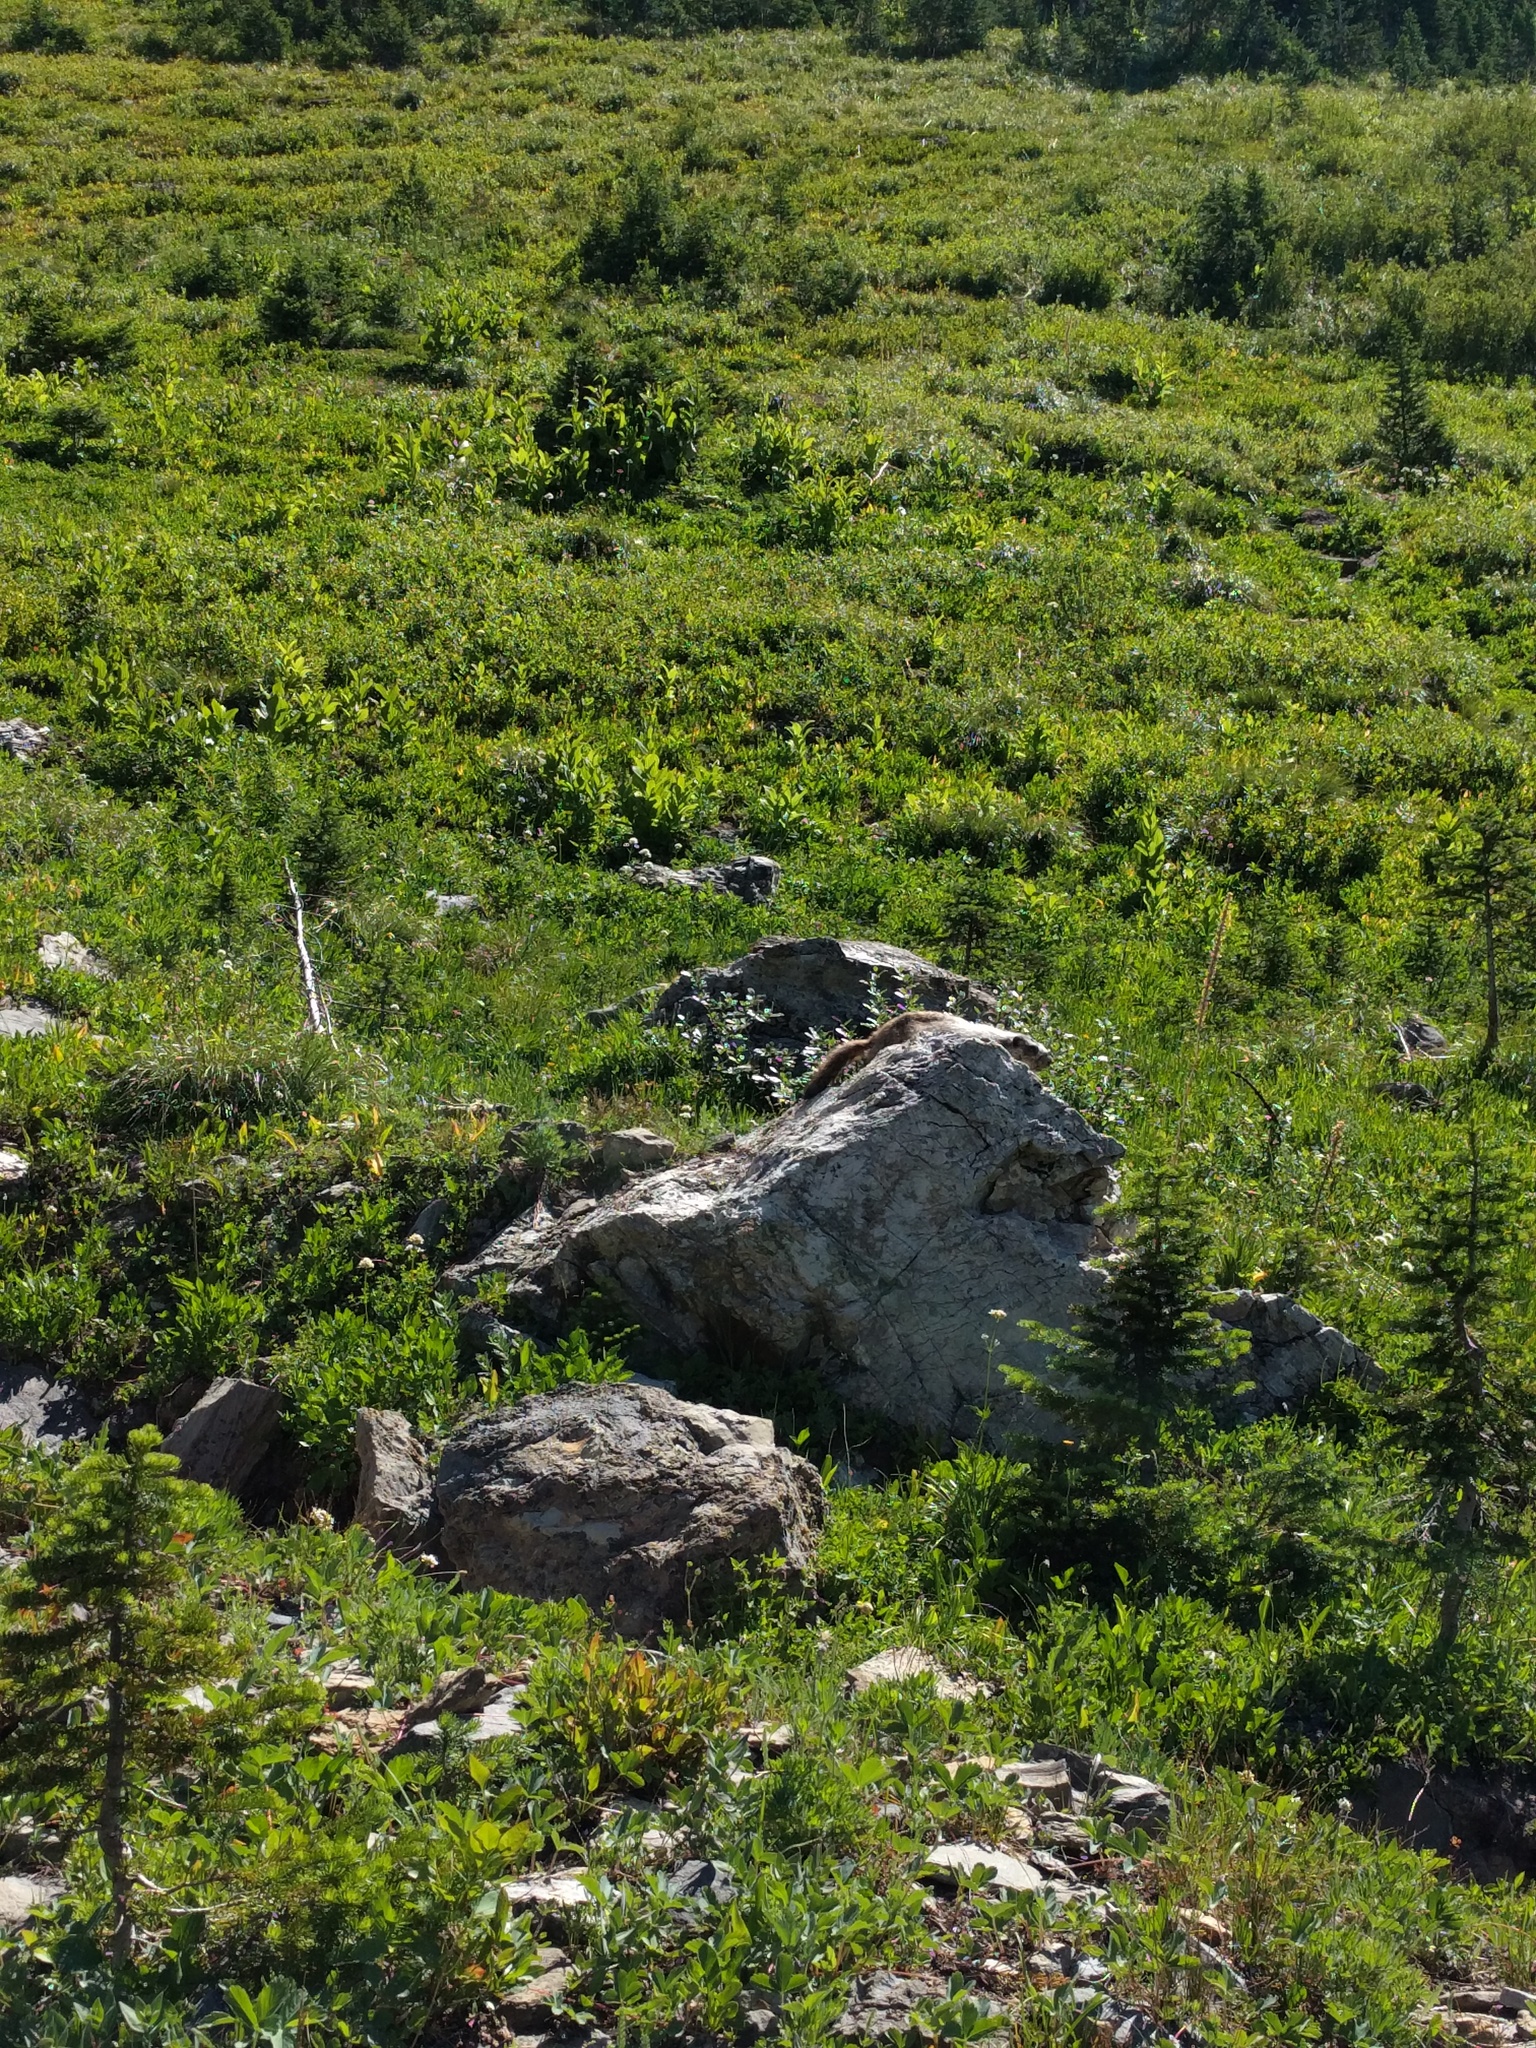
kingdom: Animalia
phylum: Chordata
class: Mammalia
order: Rodentia
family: Sciuridae
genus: Marmota
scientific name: Marmota caligata
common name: Hoary marmot
